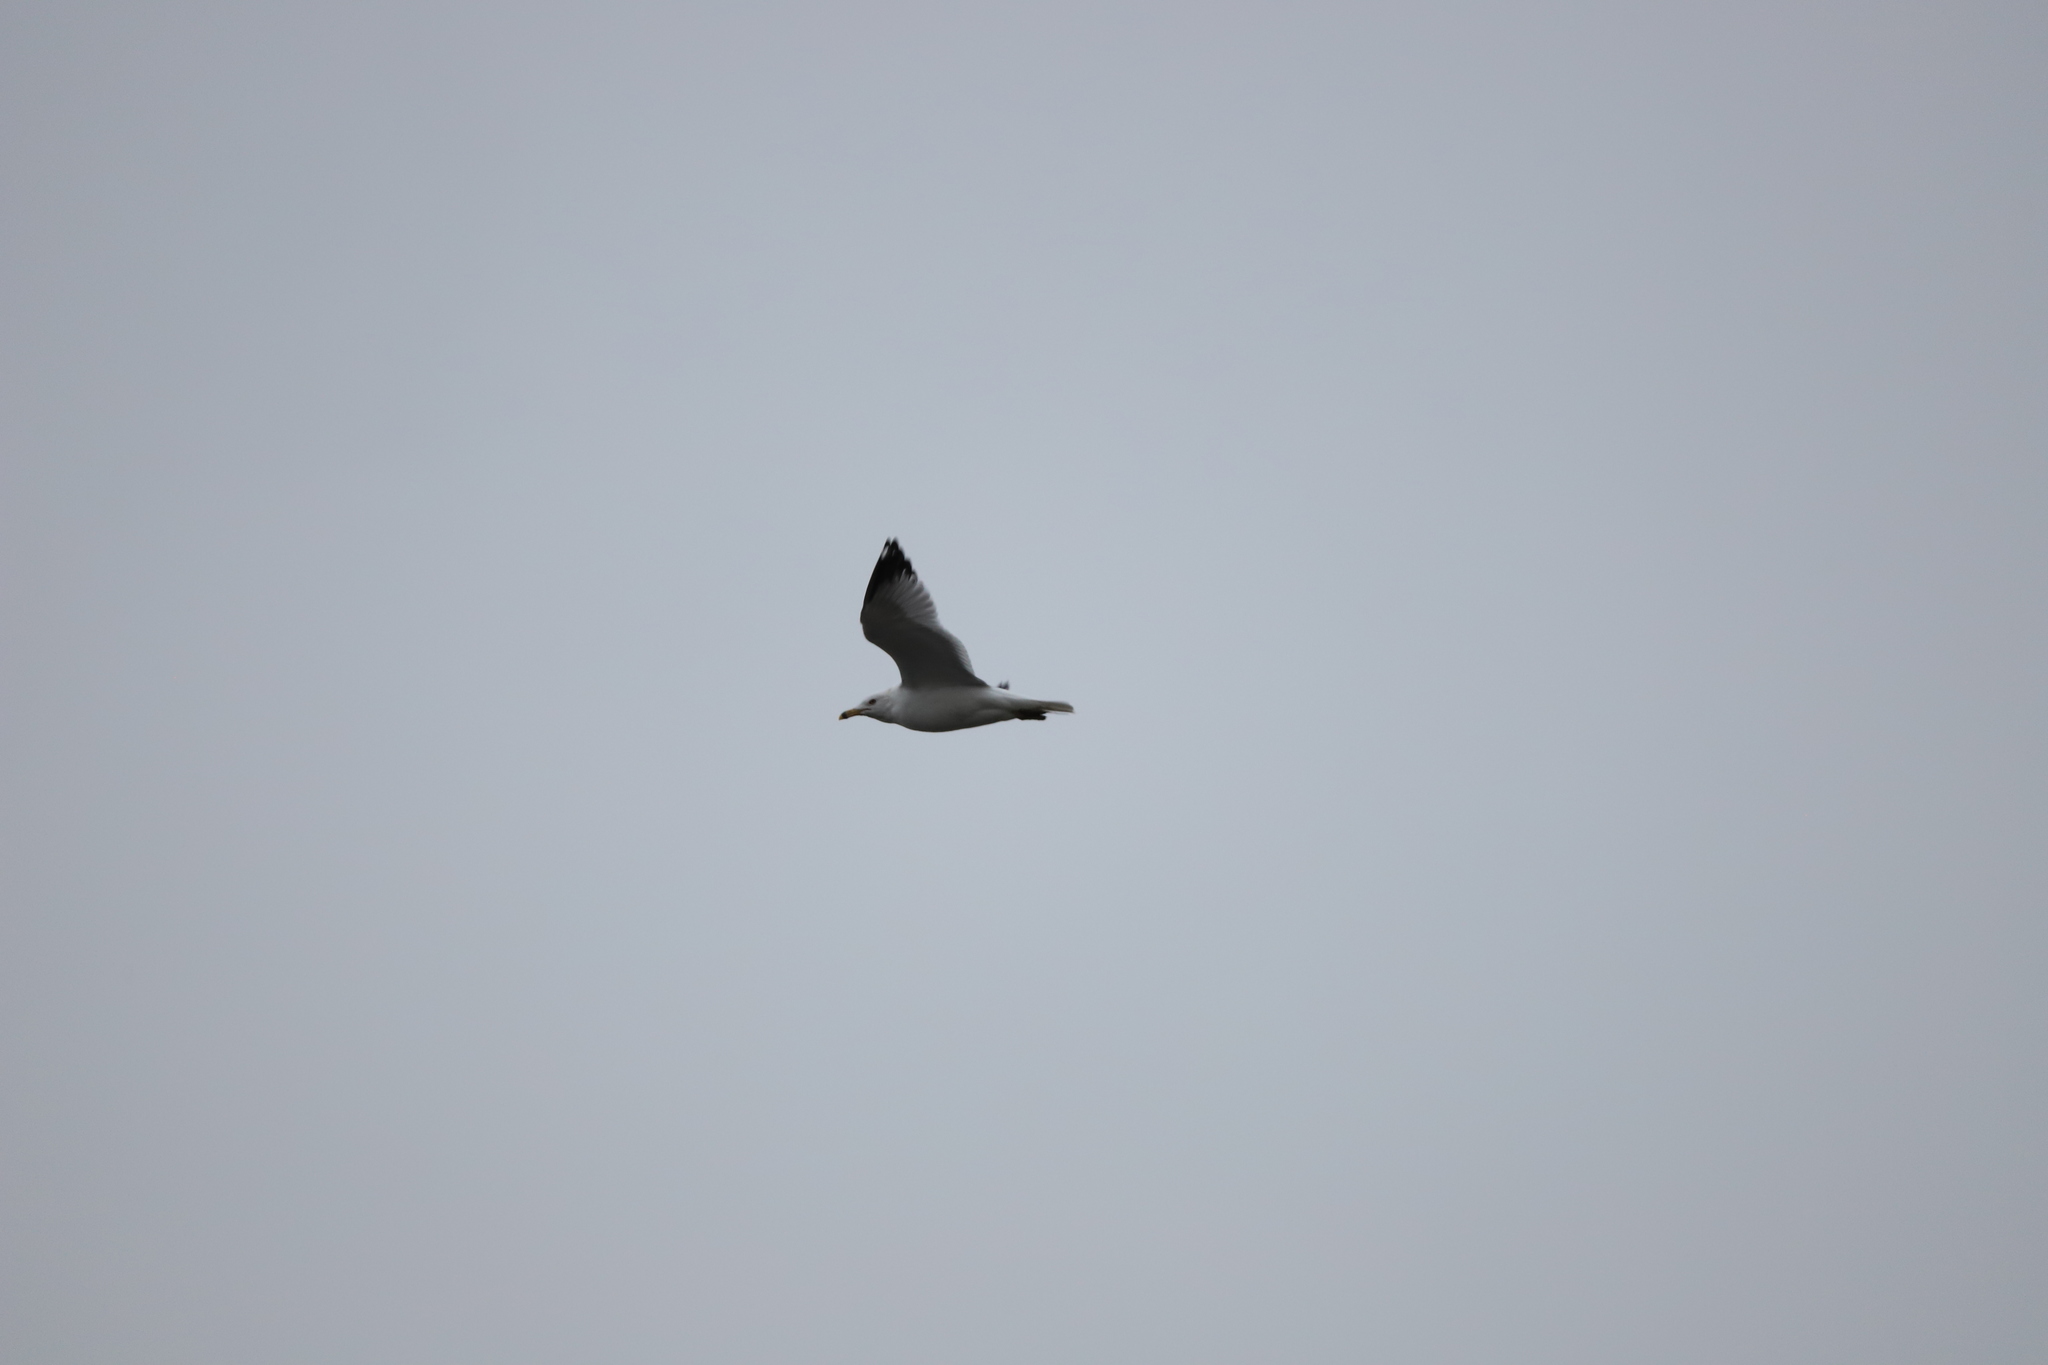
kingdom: Animalia
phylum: Chordata
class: Aves
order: Charadriiformes
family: Laridae
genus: Larus
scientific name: Larus delawarensis
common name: Ring-billed gull
